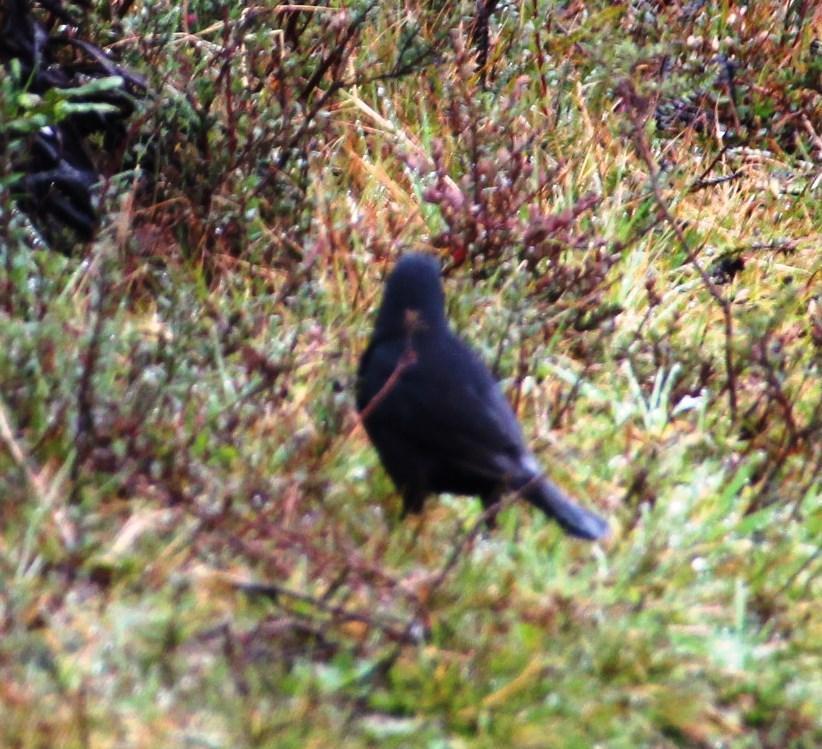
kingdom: Animalia
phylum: Chordata
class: Aves
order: Passeriformes
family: Icteridae
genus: Curaeus
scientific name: Curaeus curaeus
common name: Austral blackbird
